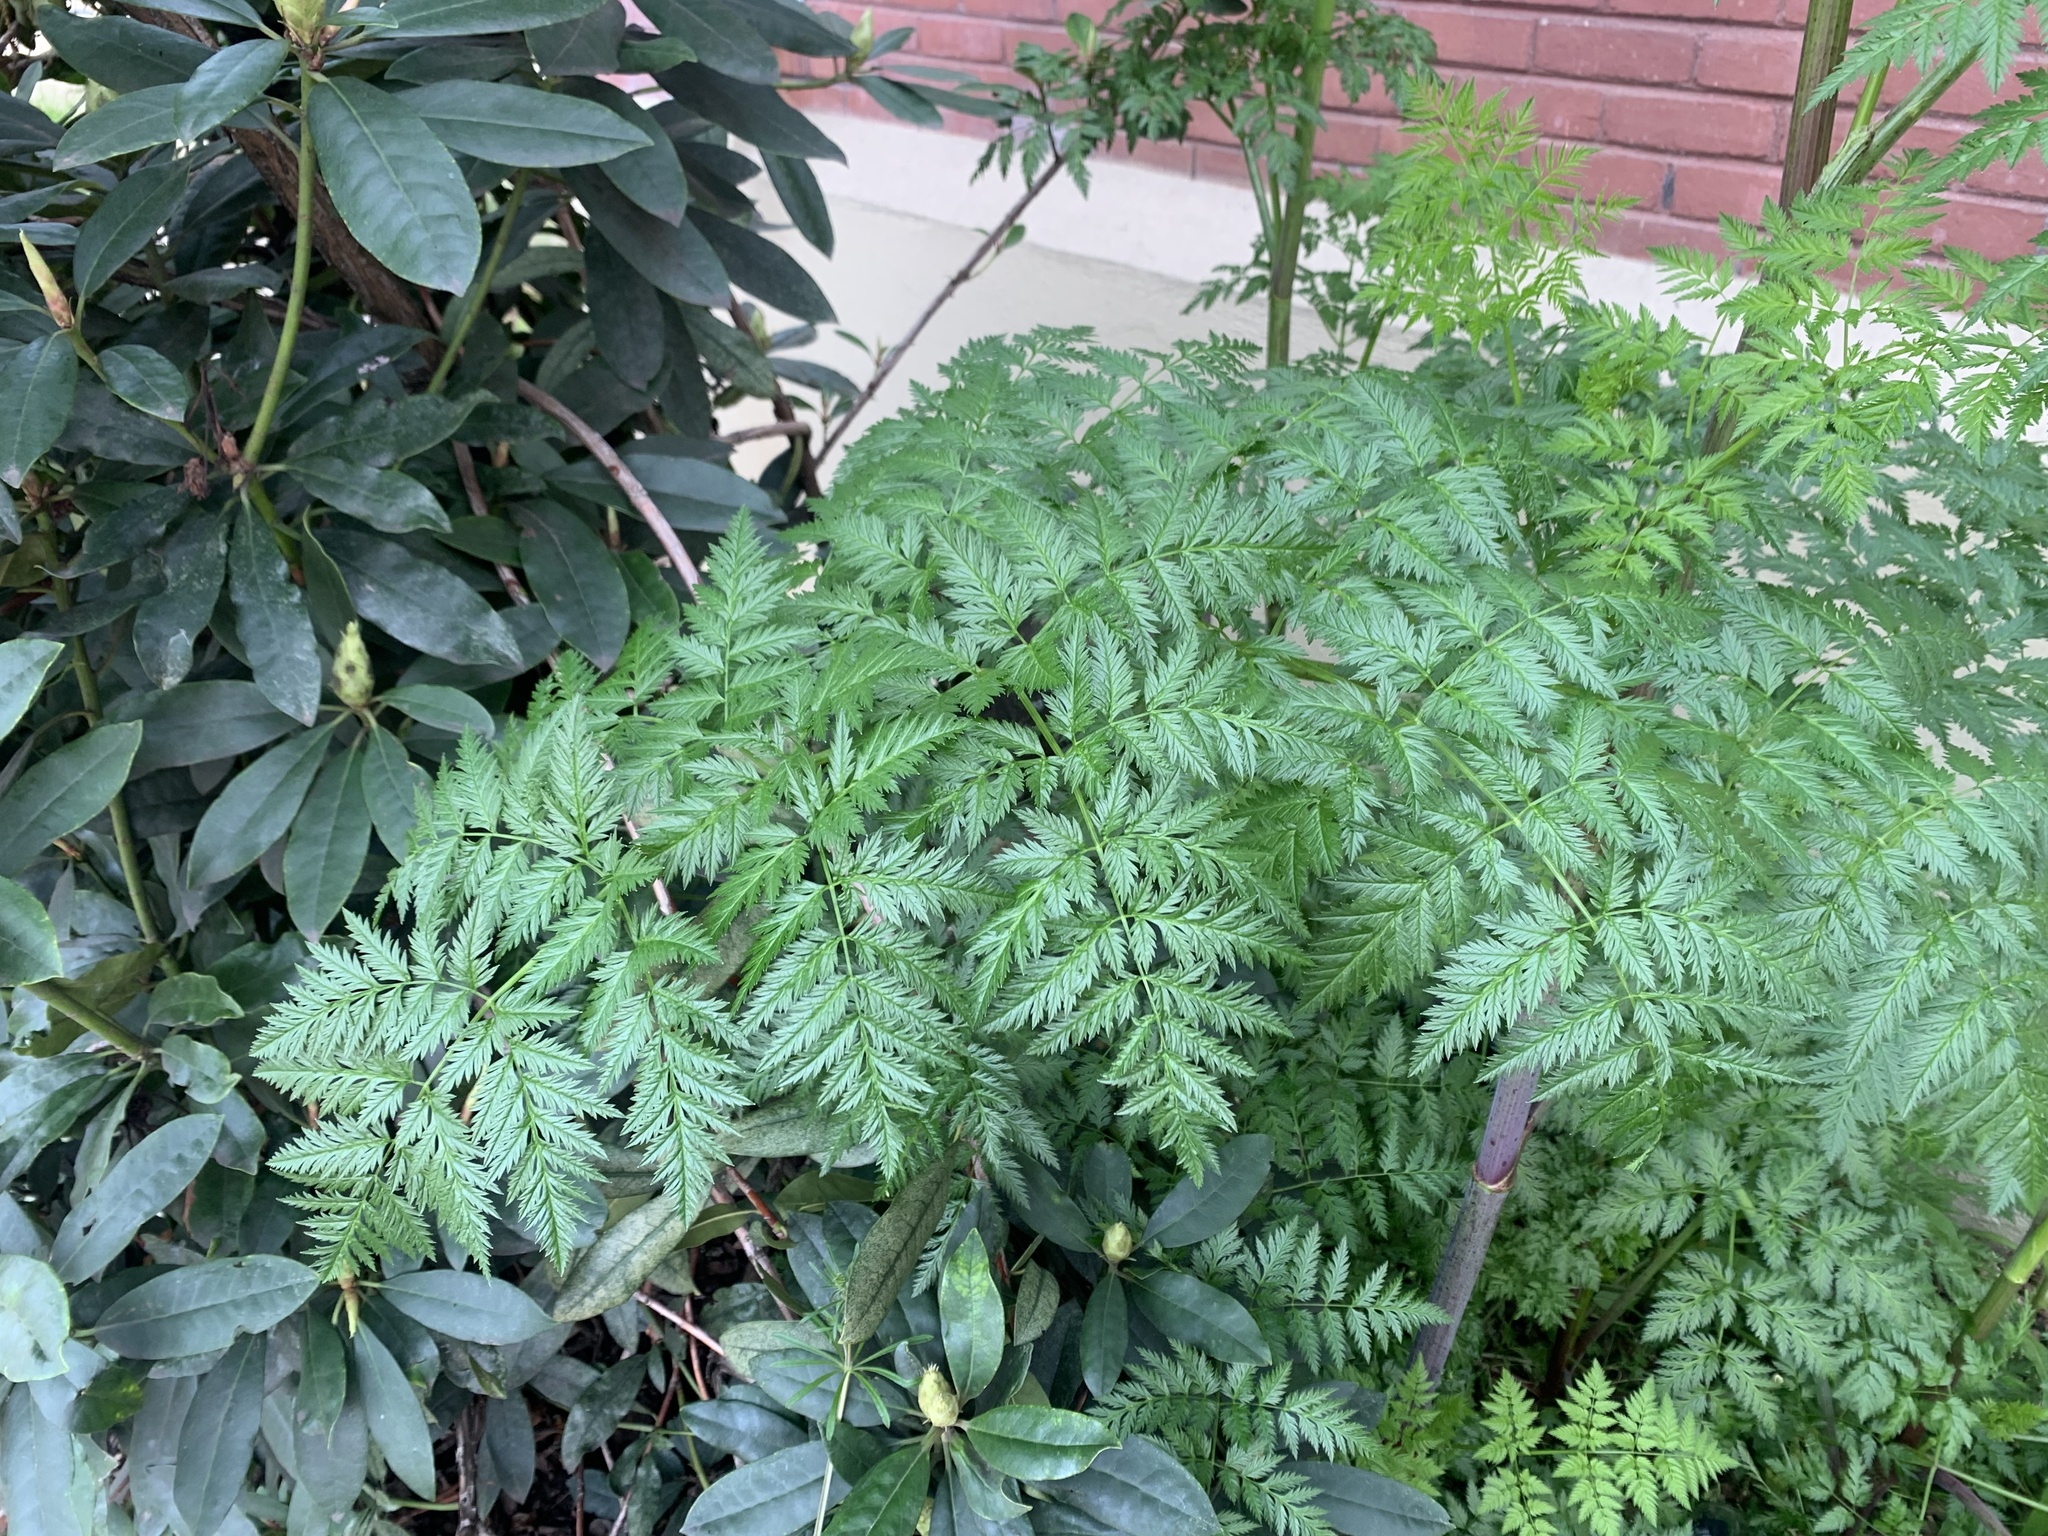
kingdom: Plantae
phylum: Tracheophyta
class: Magnoliopsida
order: Apiales
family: Apiaceae
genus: Conium
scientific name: Conium maculatum
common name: Hemlock
